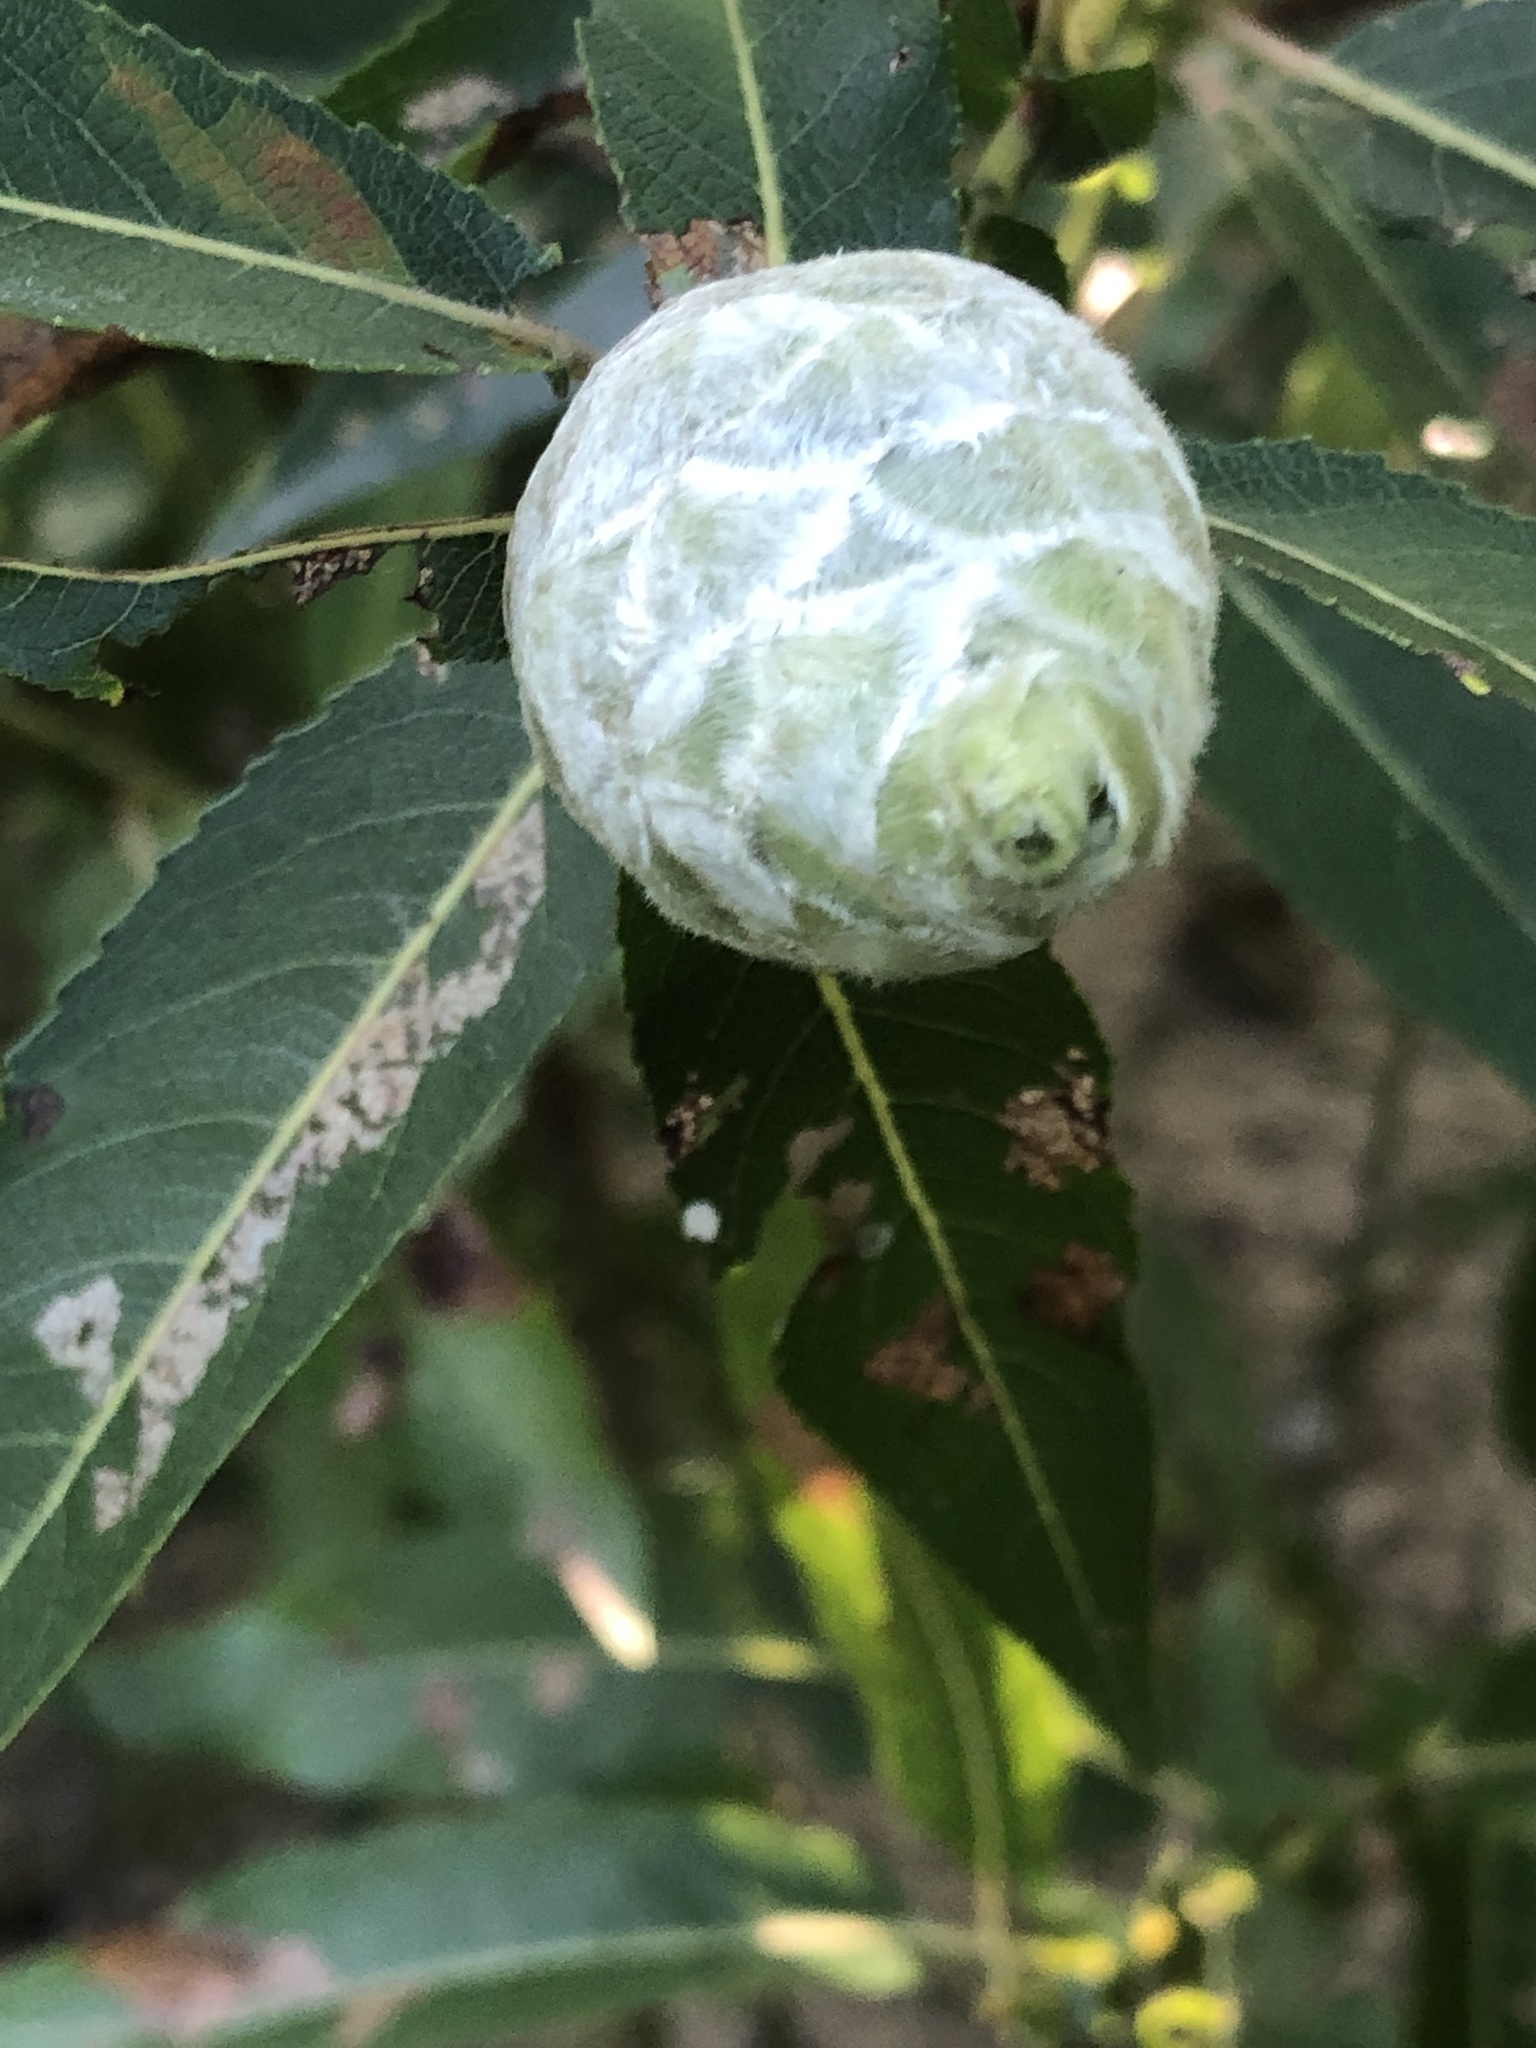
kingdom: Animalia
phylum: Arthropoda
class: Insecta
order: Diptera
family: Cecidomyiidae
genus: Rabdophaga
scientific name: Rabdophaga strobiloides
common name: Willow pinecone gall midge
